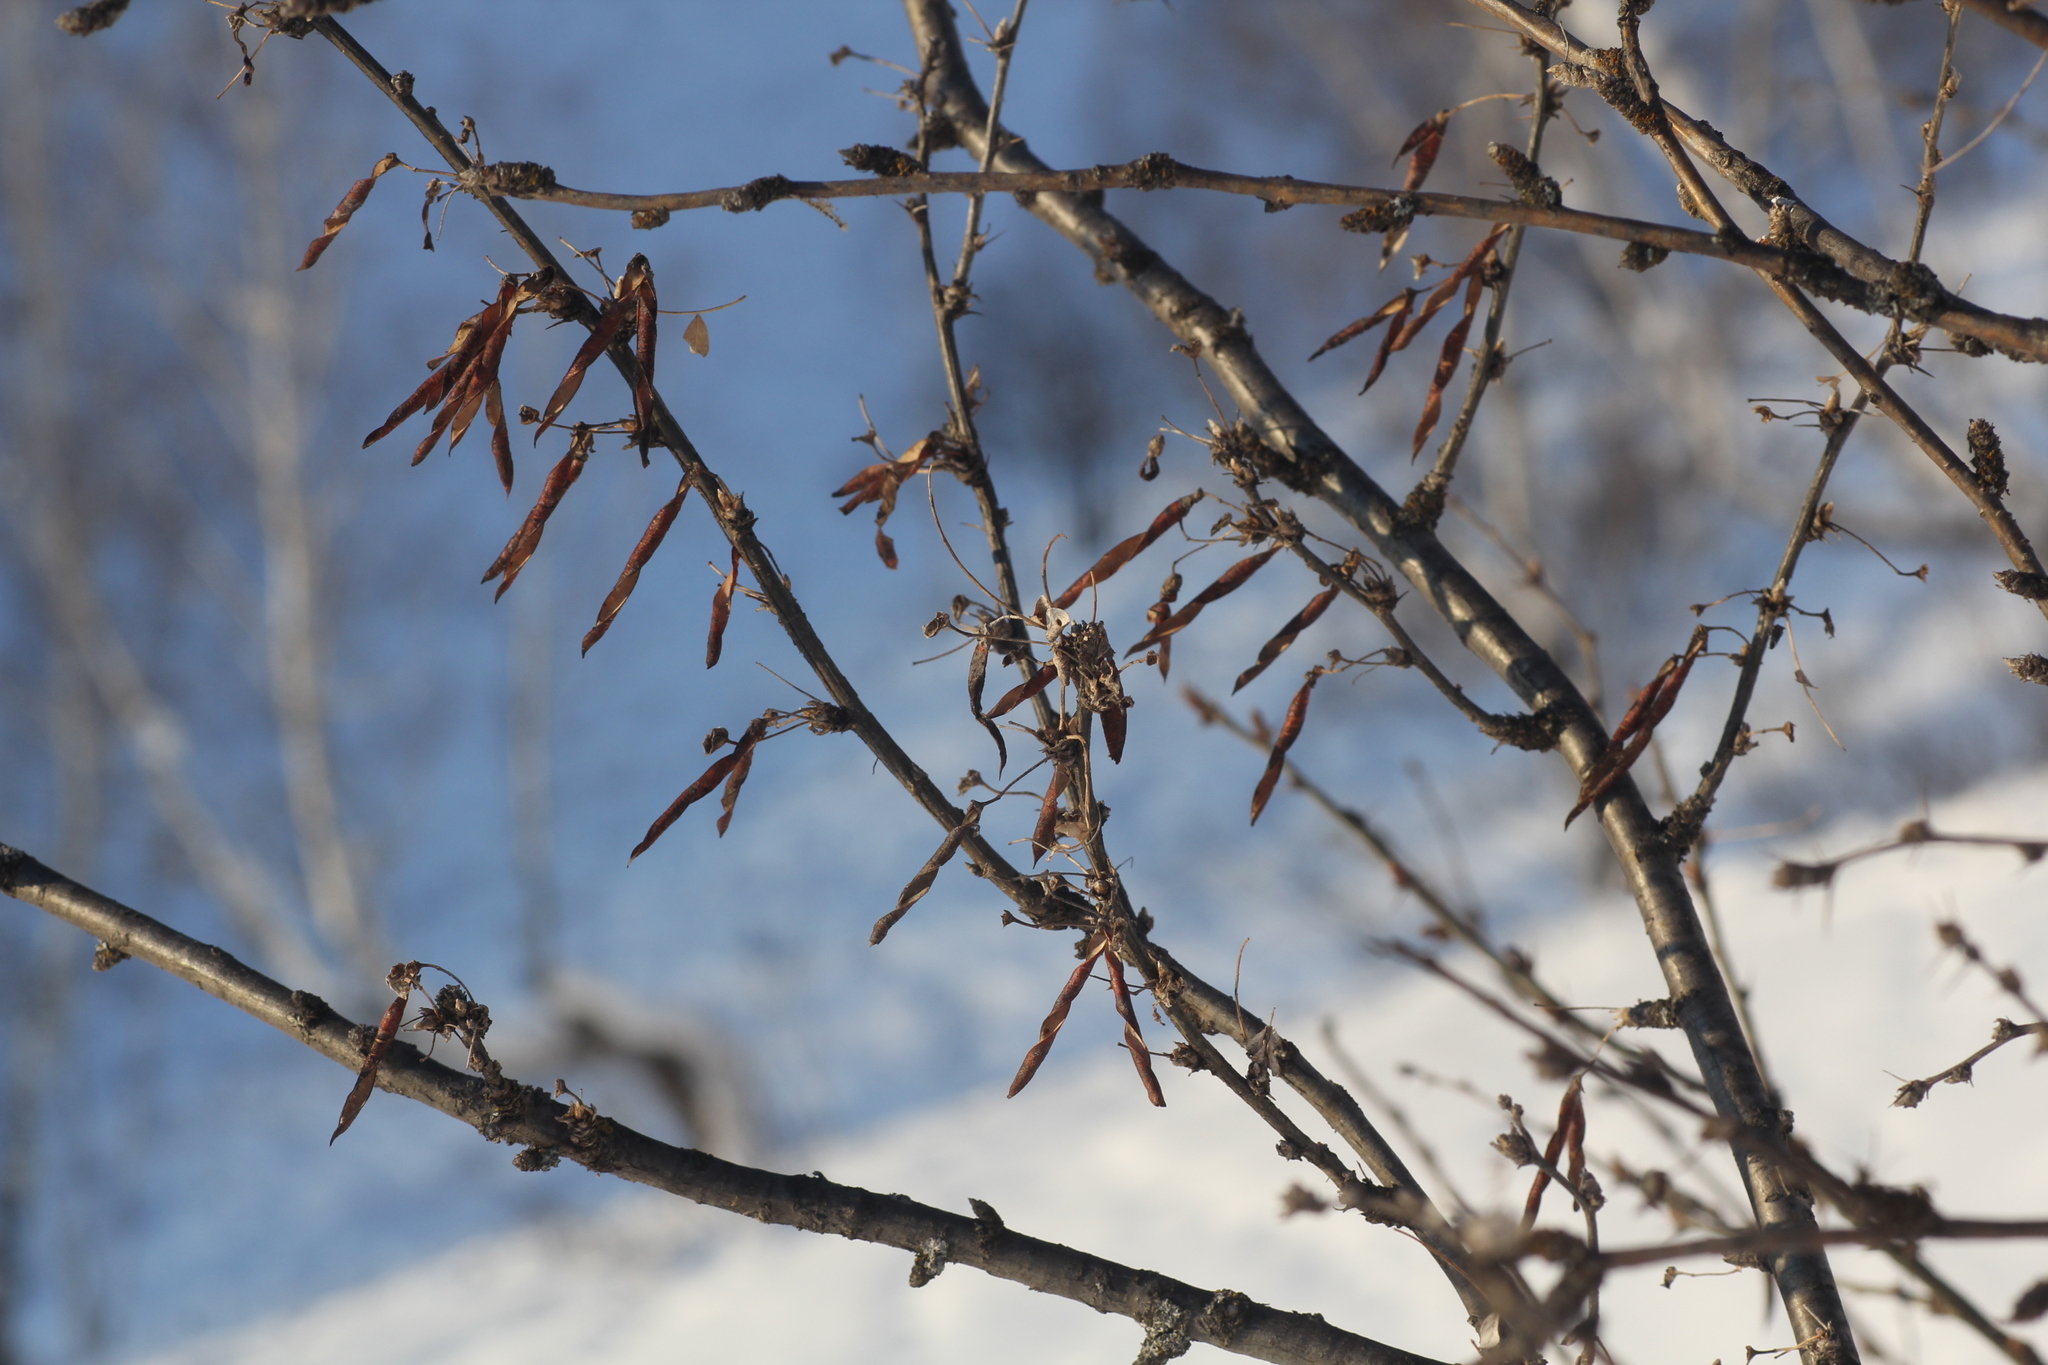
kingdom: Plantae
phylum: Tracheophyta
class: Magnoliopsida
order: Fabales
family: Fabaceae
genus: Caragana
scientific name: Caragana arborescens
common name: Siberian peashrub
